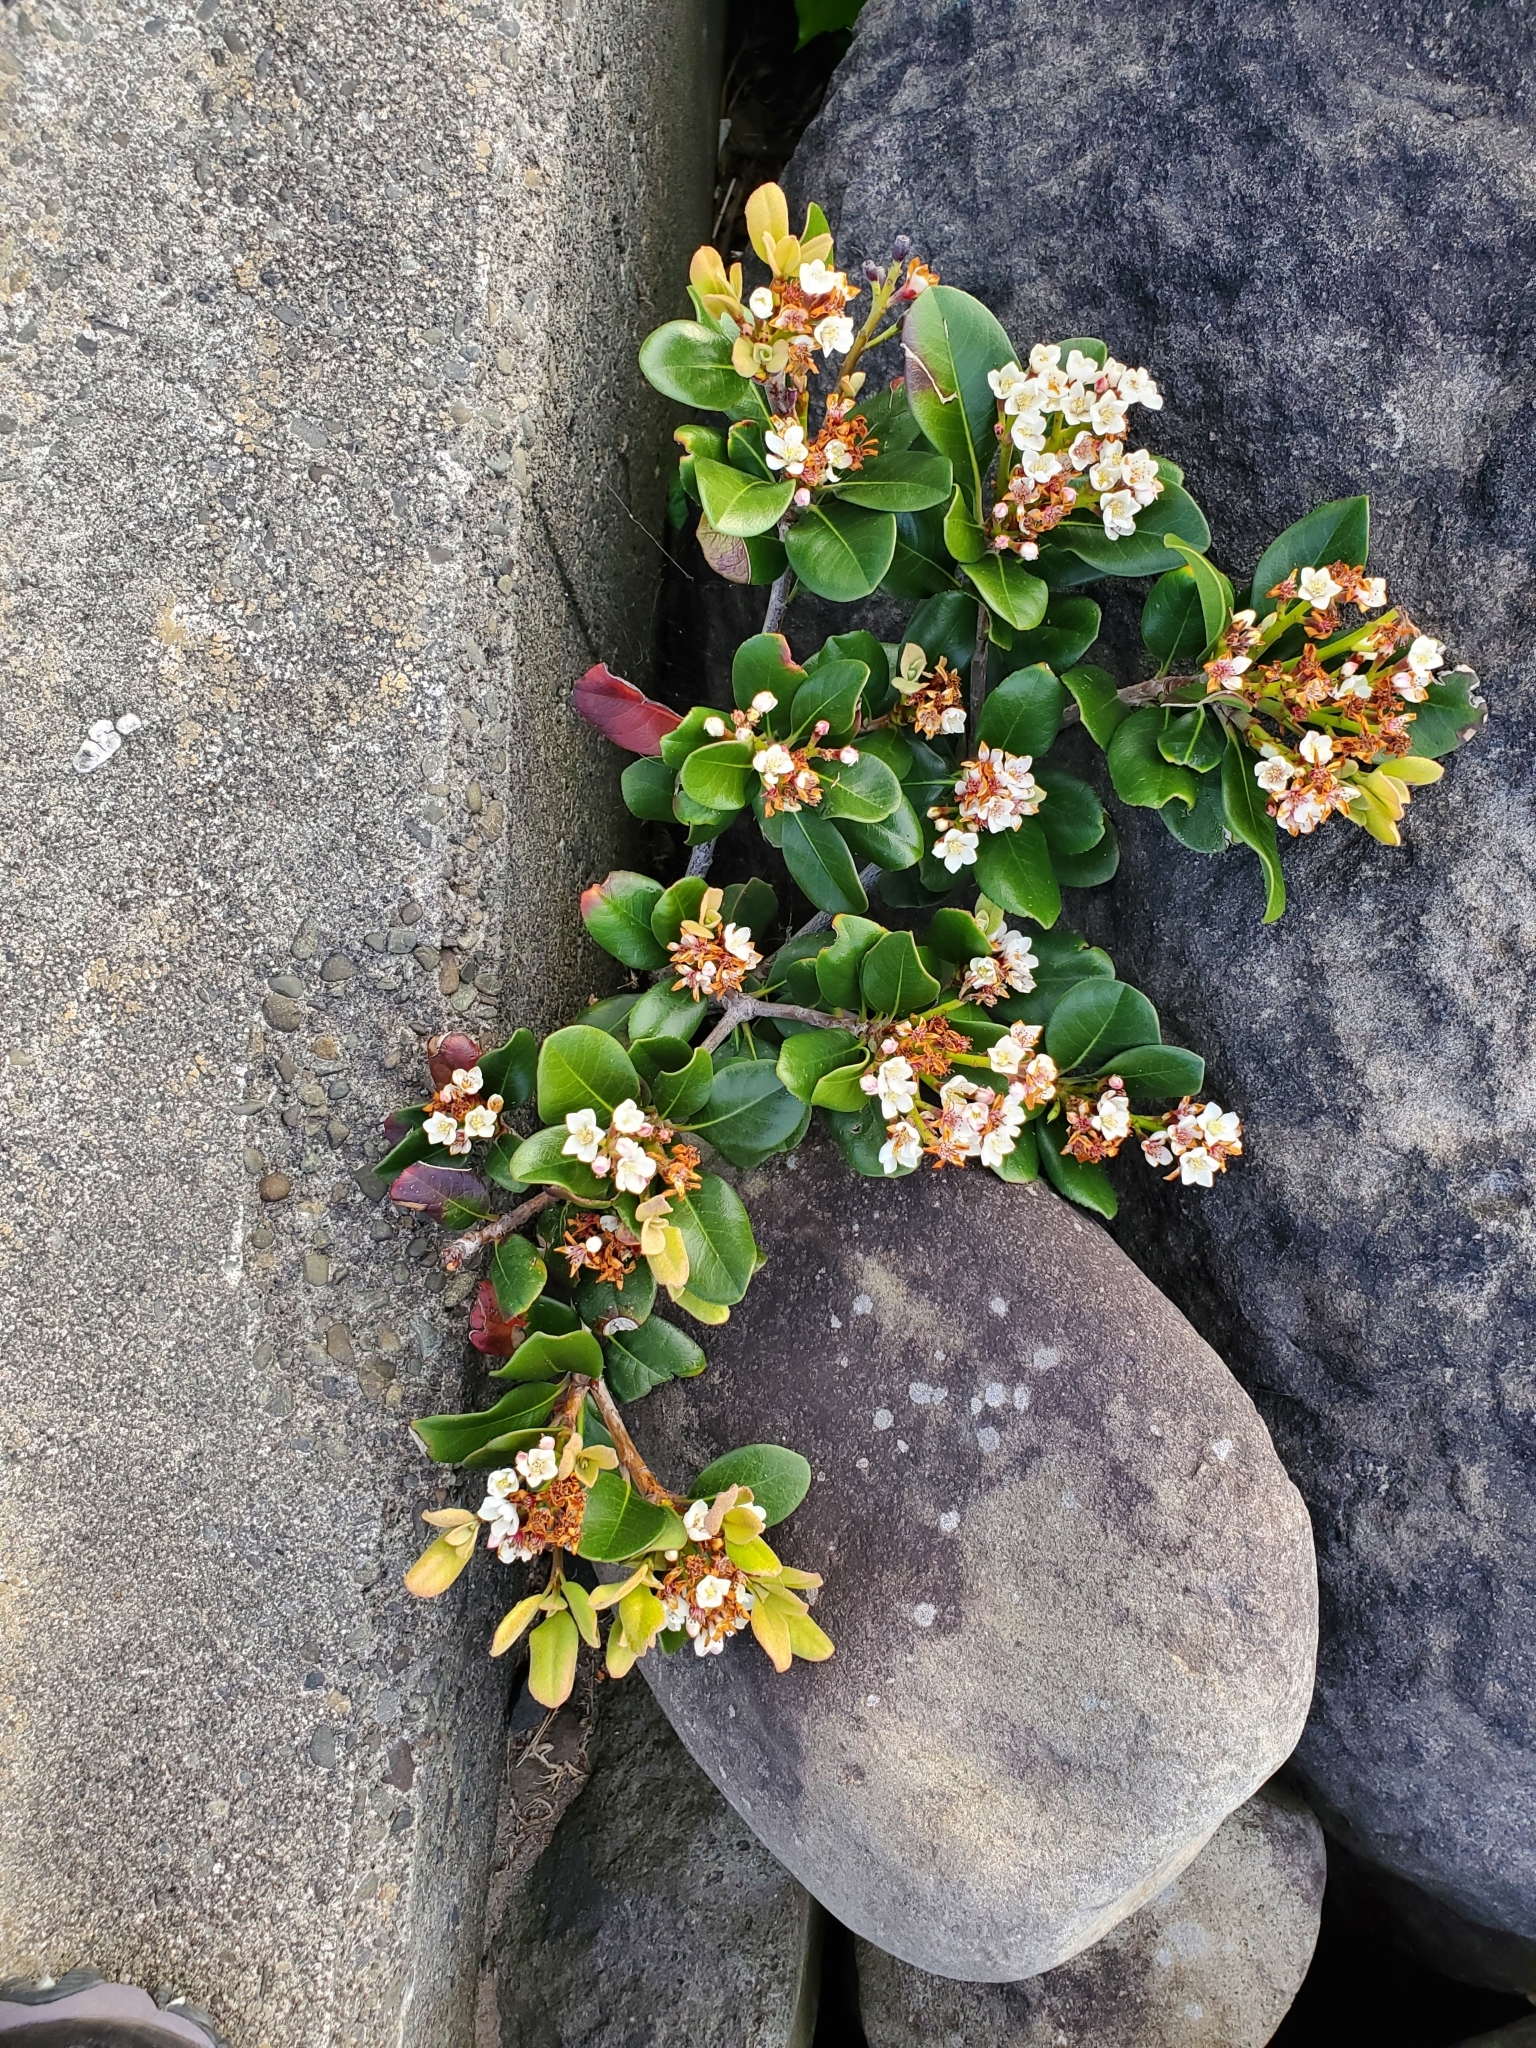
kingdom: Plantae
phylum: Tracheophyta
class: Magnoliopsida
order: Rosales
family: Rosaceae
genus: Rhaphiolepis
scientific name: Rhaphiolepis indica
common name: India-hawthorn
